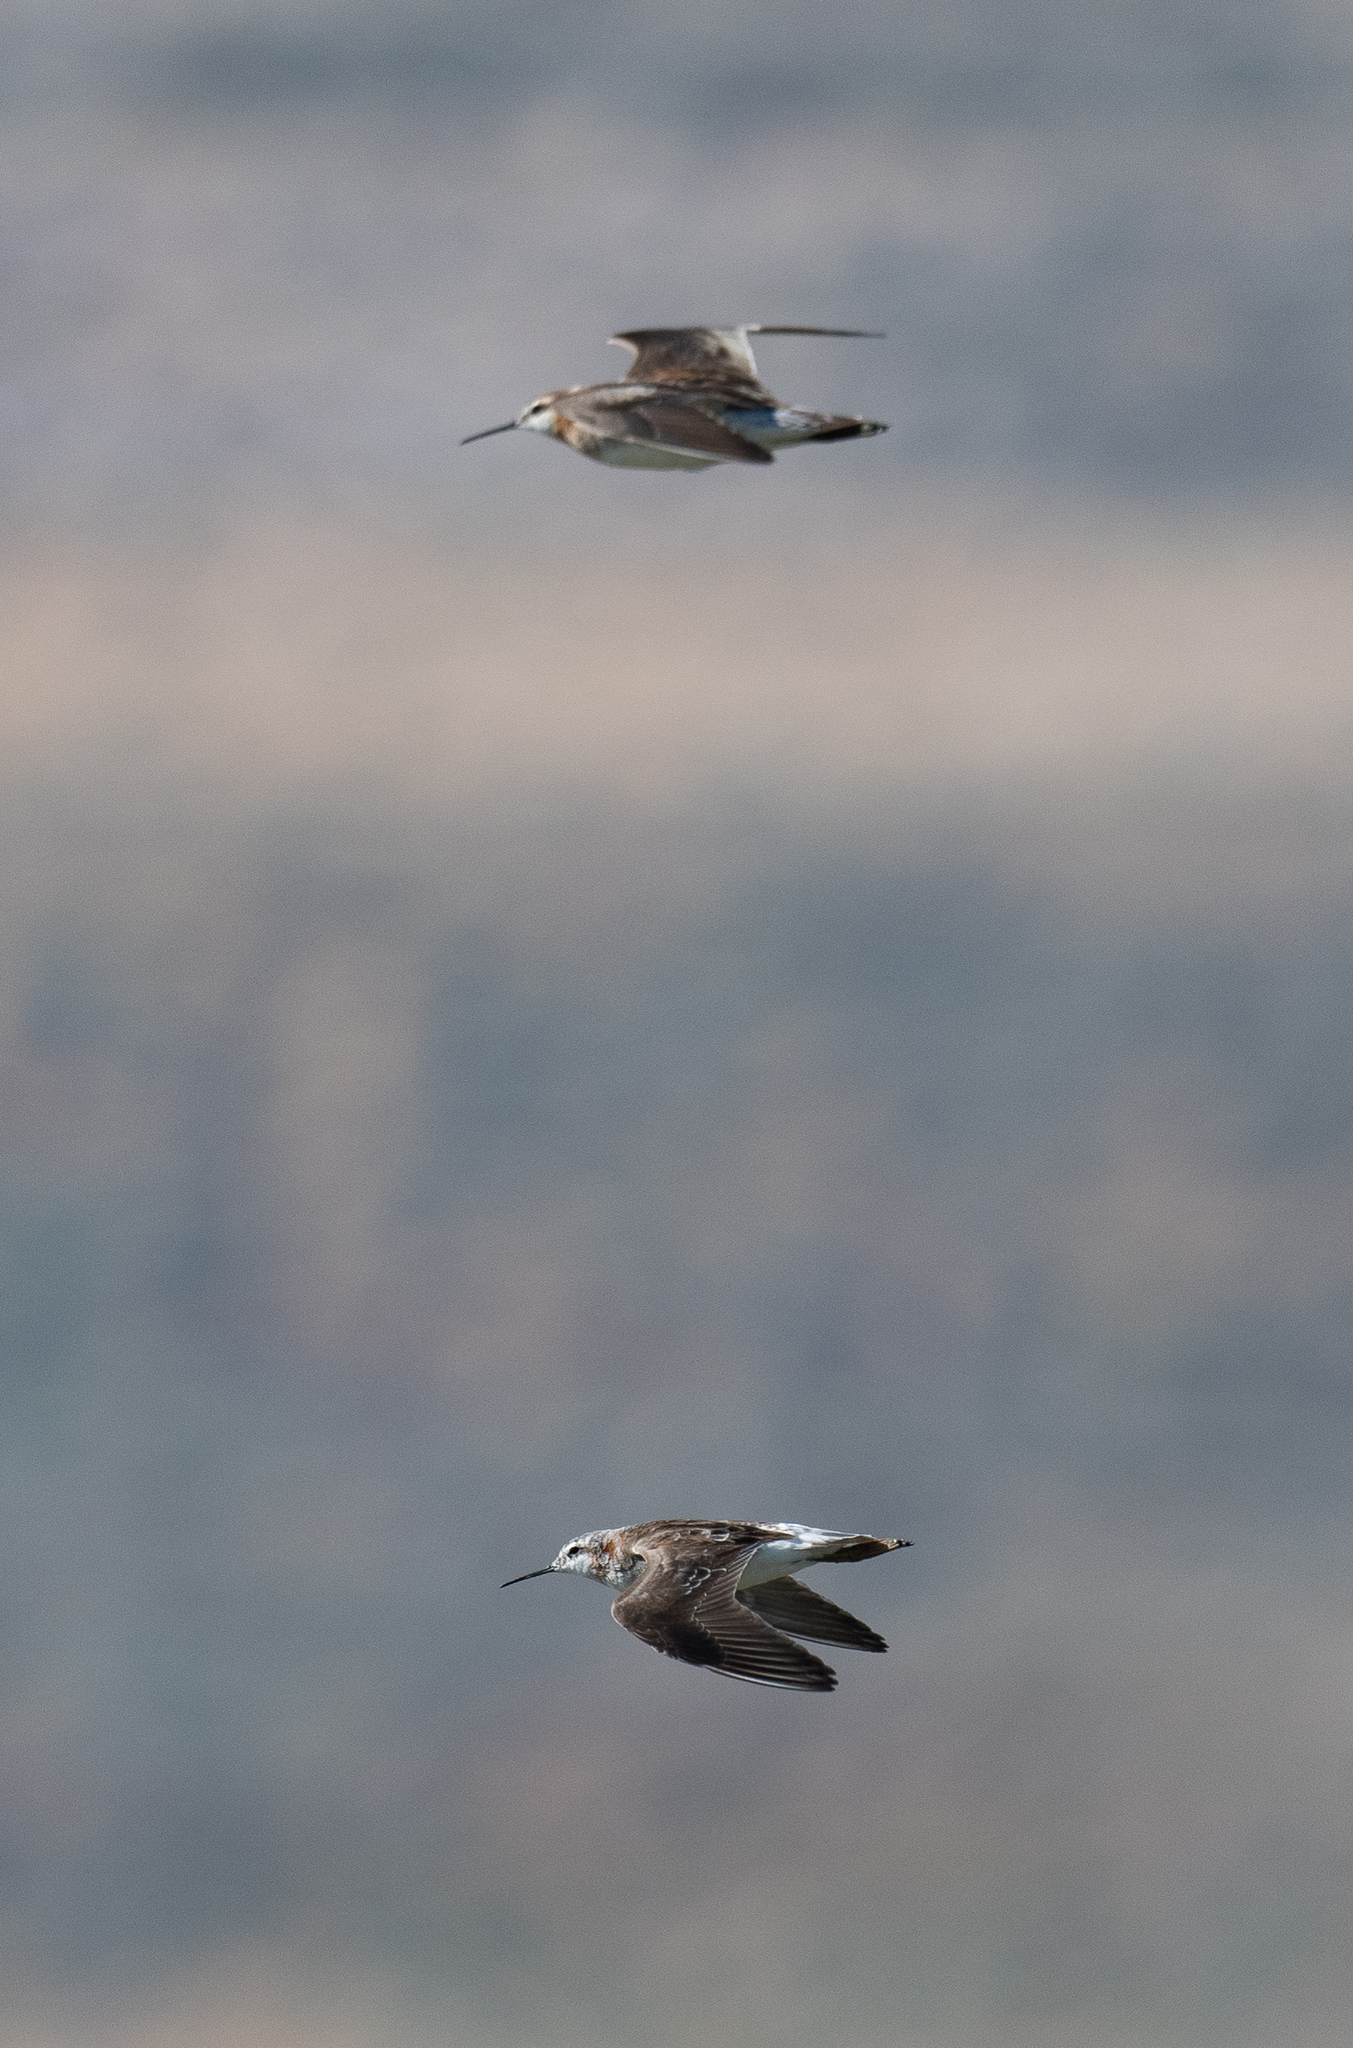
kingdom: Animalia
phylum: Chordata
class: Aves
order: Charadriiformes
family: Scolopacidae
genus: Phalaropus
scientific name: Phalaropus tricolor
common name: Wilson's phalarope
